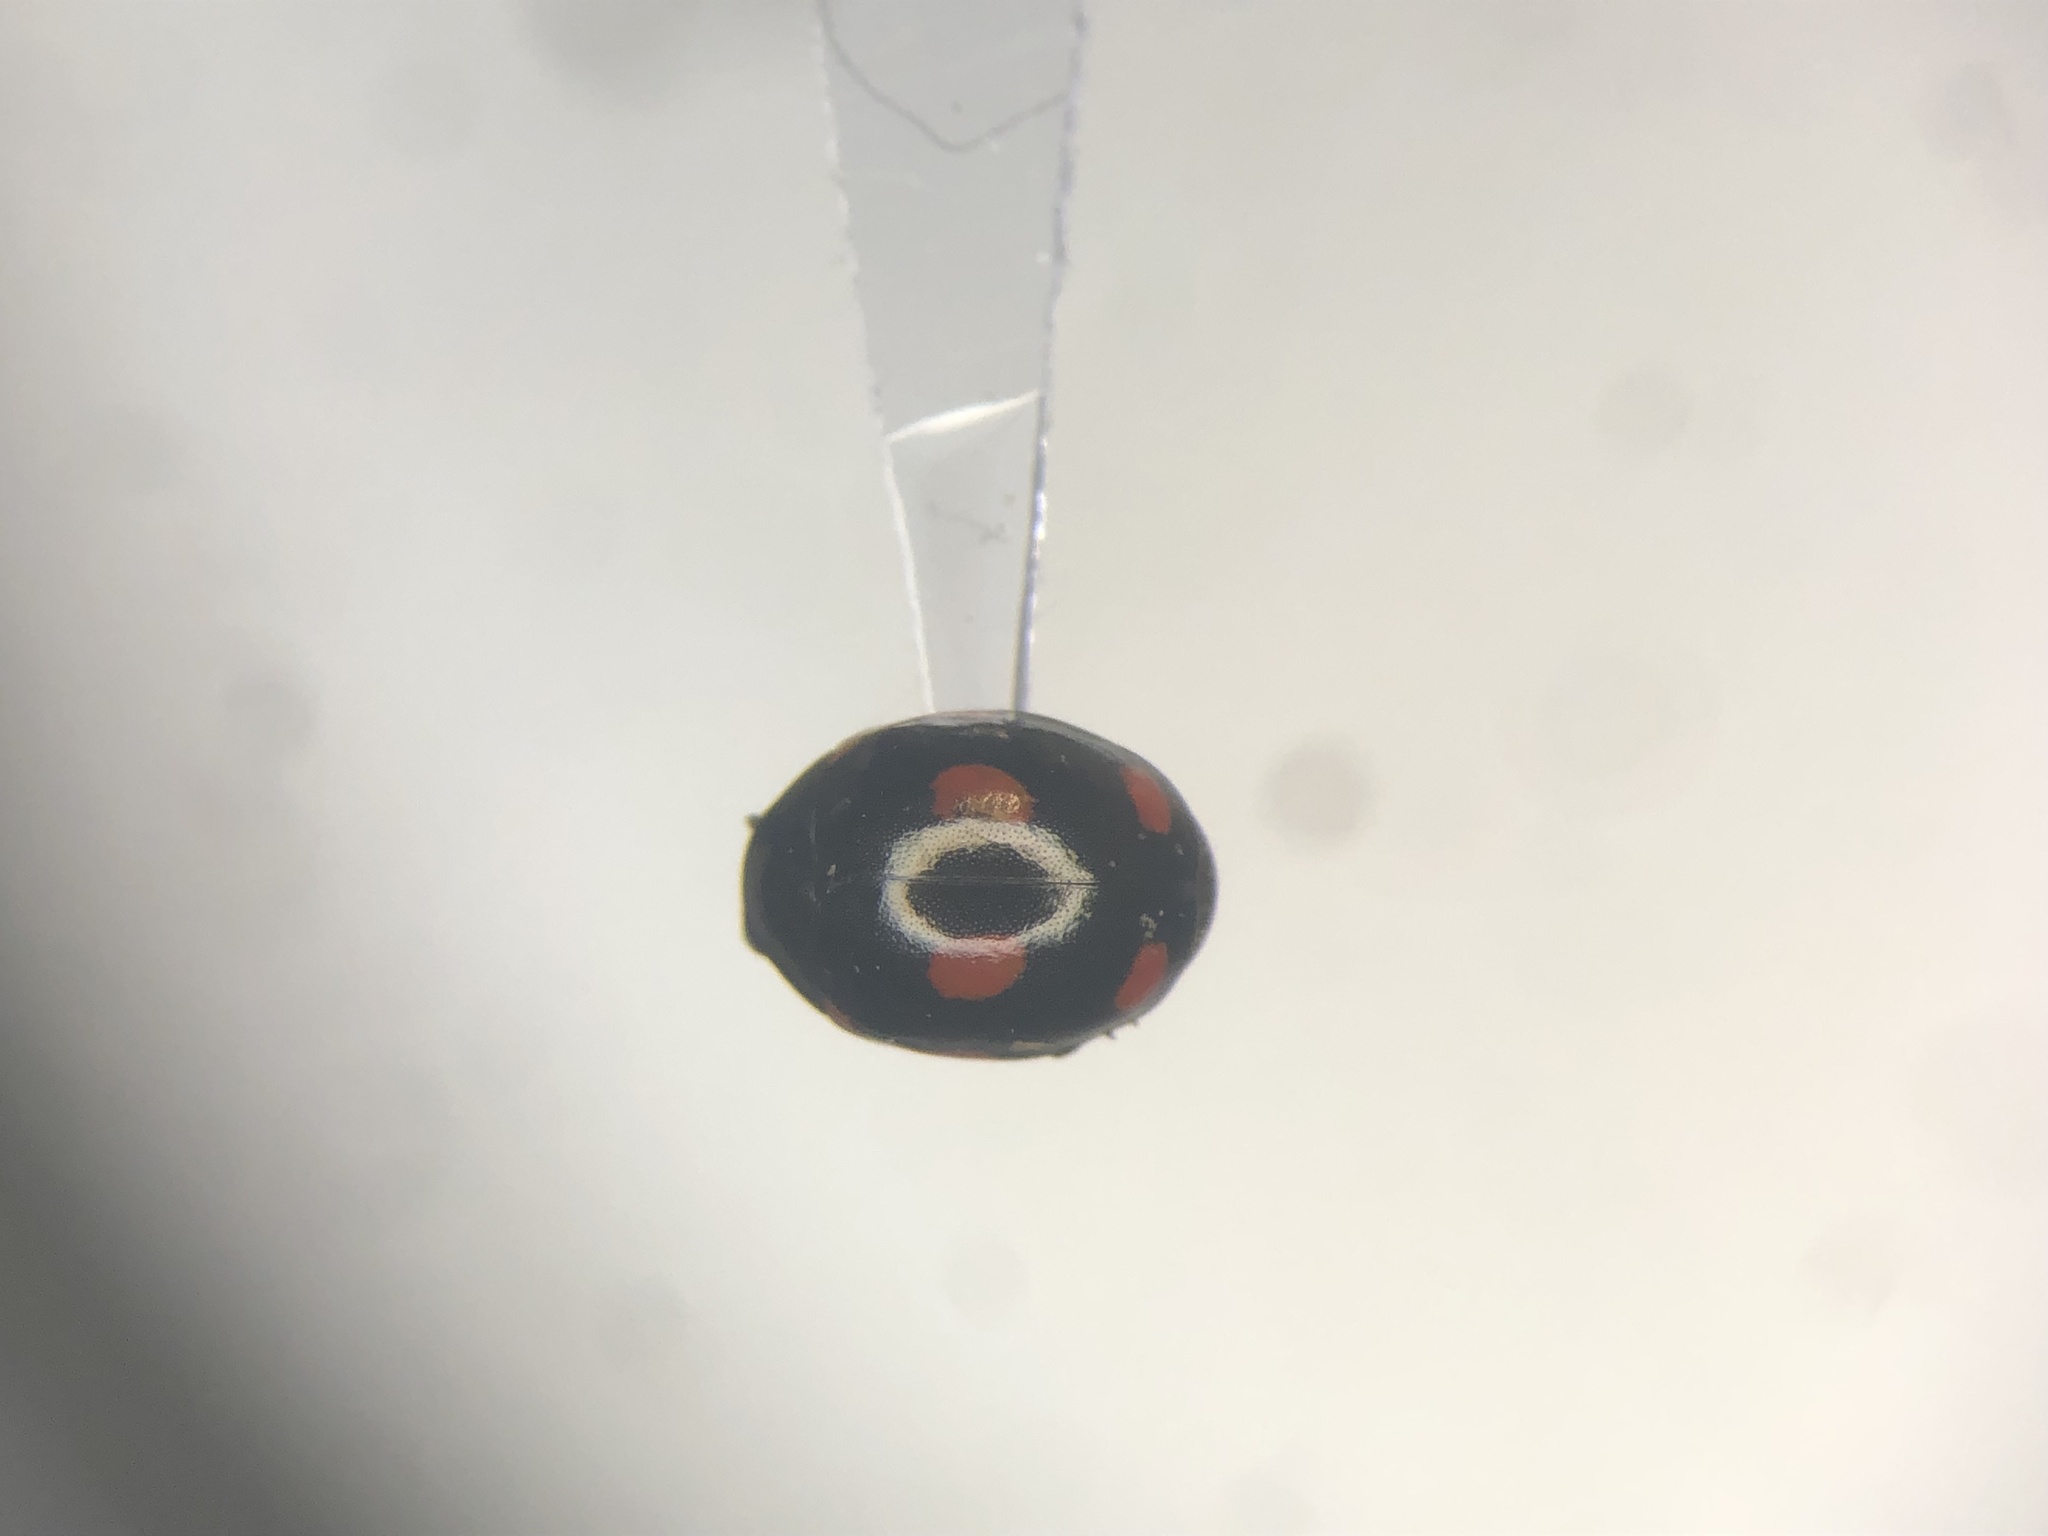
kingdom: Animalia
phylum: Arthropoda
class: Insecta
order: Coleoptera
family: Coccinellidae
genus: Hyperaspis
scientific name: Hyperaspis lateralis
